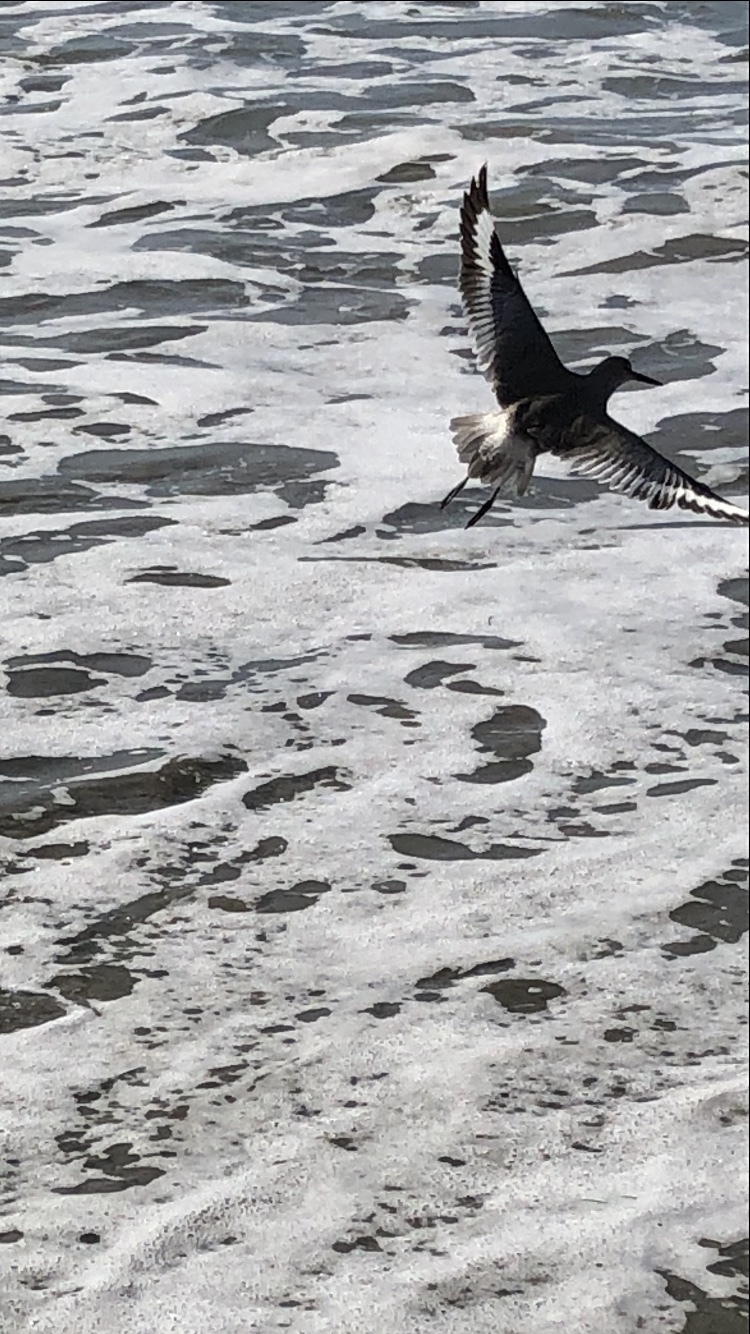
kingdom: Animalia
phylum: Chordata
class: Aves
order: Charadriiformes
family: Scolopacidae
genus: Tringa
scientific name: Tringa semipalmata
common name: Willet
